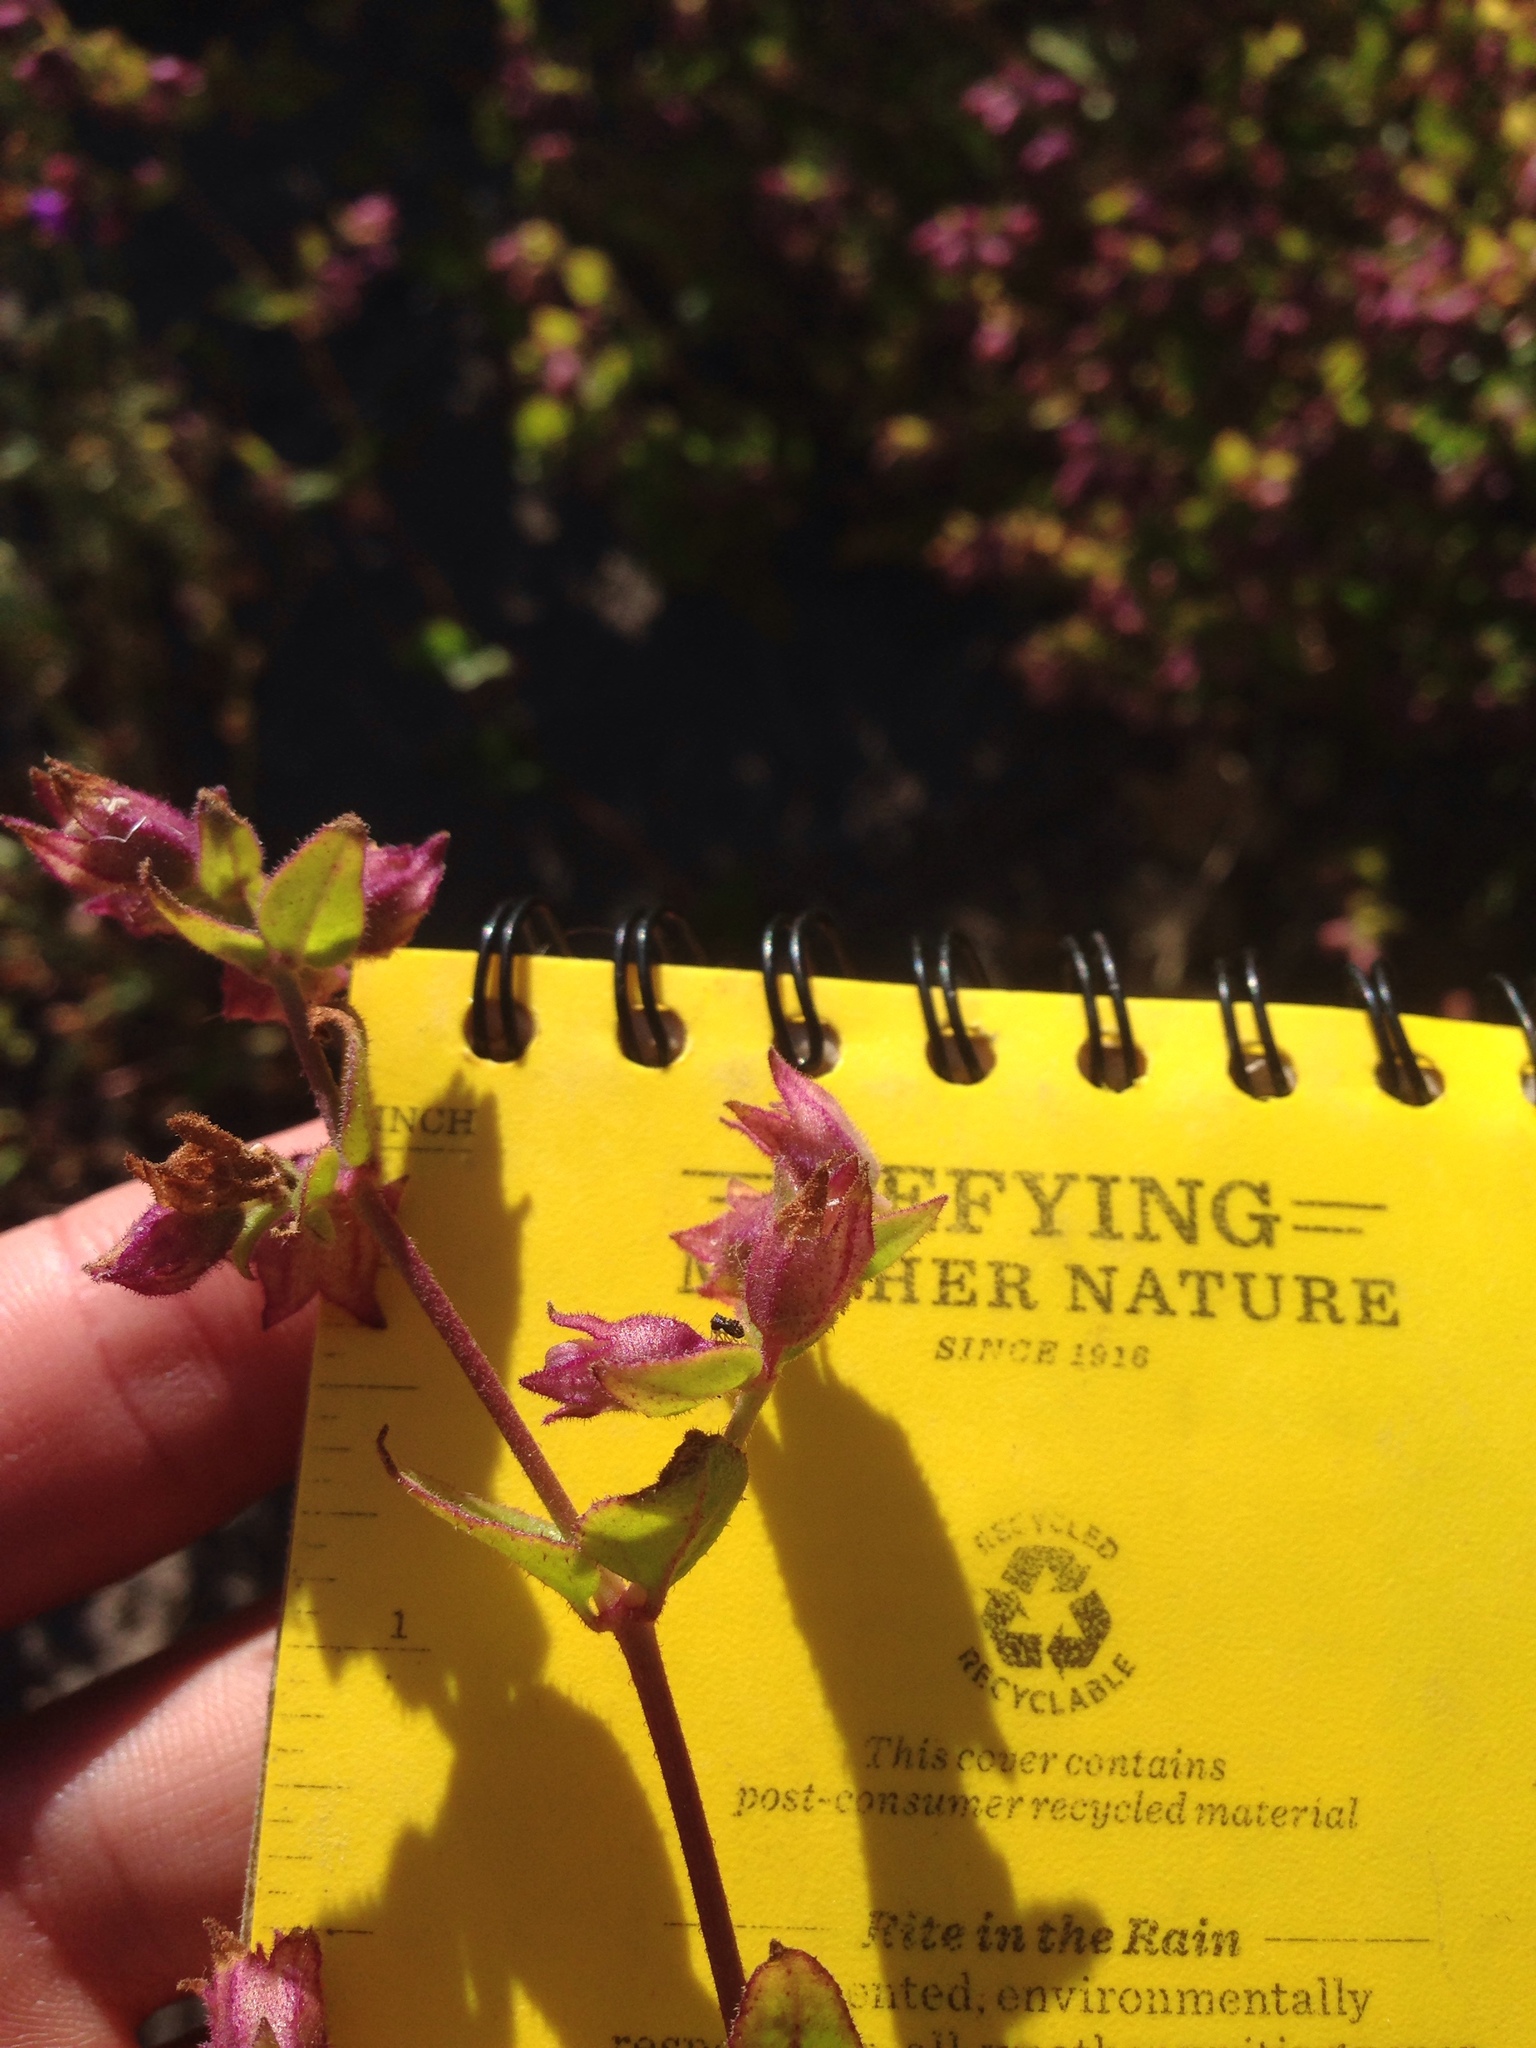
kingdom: Plantae
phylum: Tracheophyta
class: Magnoliopsida
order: Caryophyllales
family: Nyctaginaceae
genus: Mirabilis
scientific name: Mirabilis laevis
